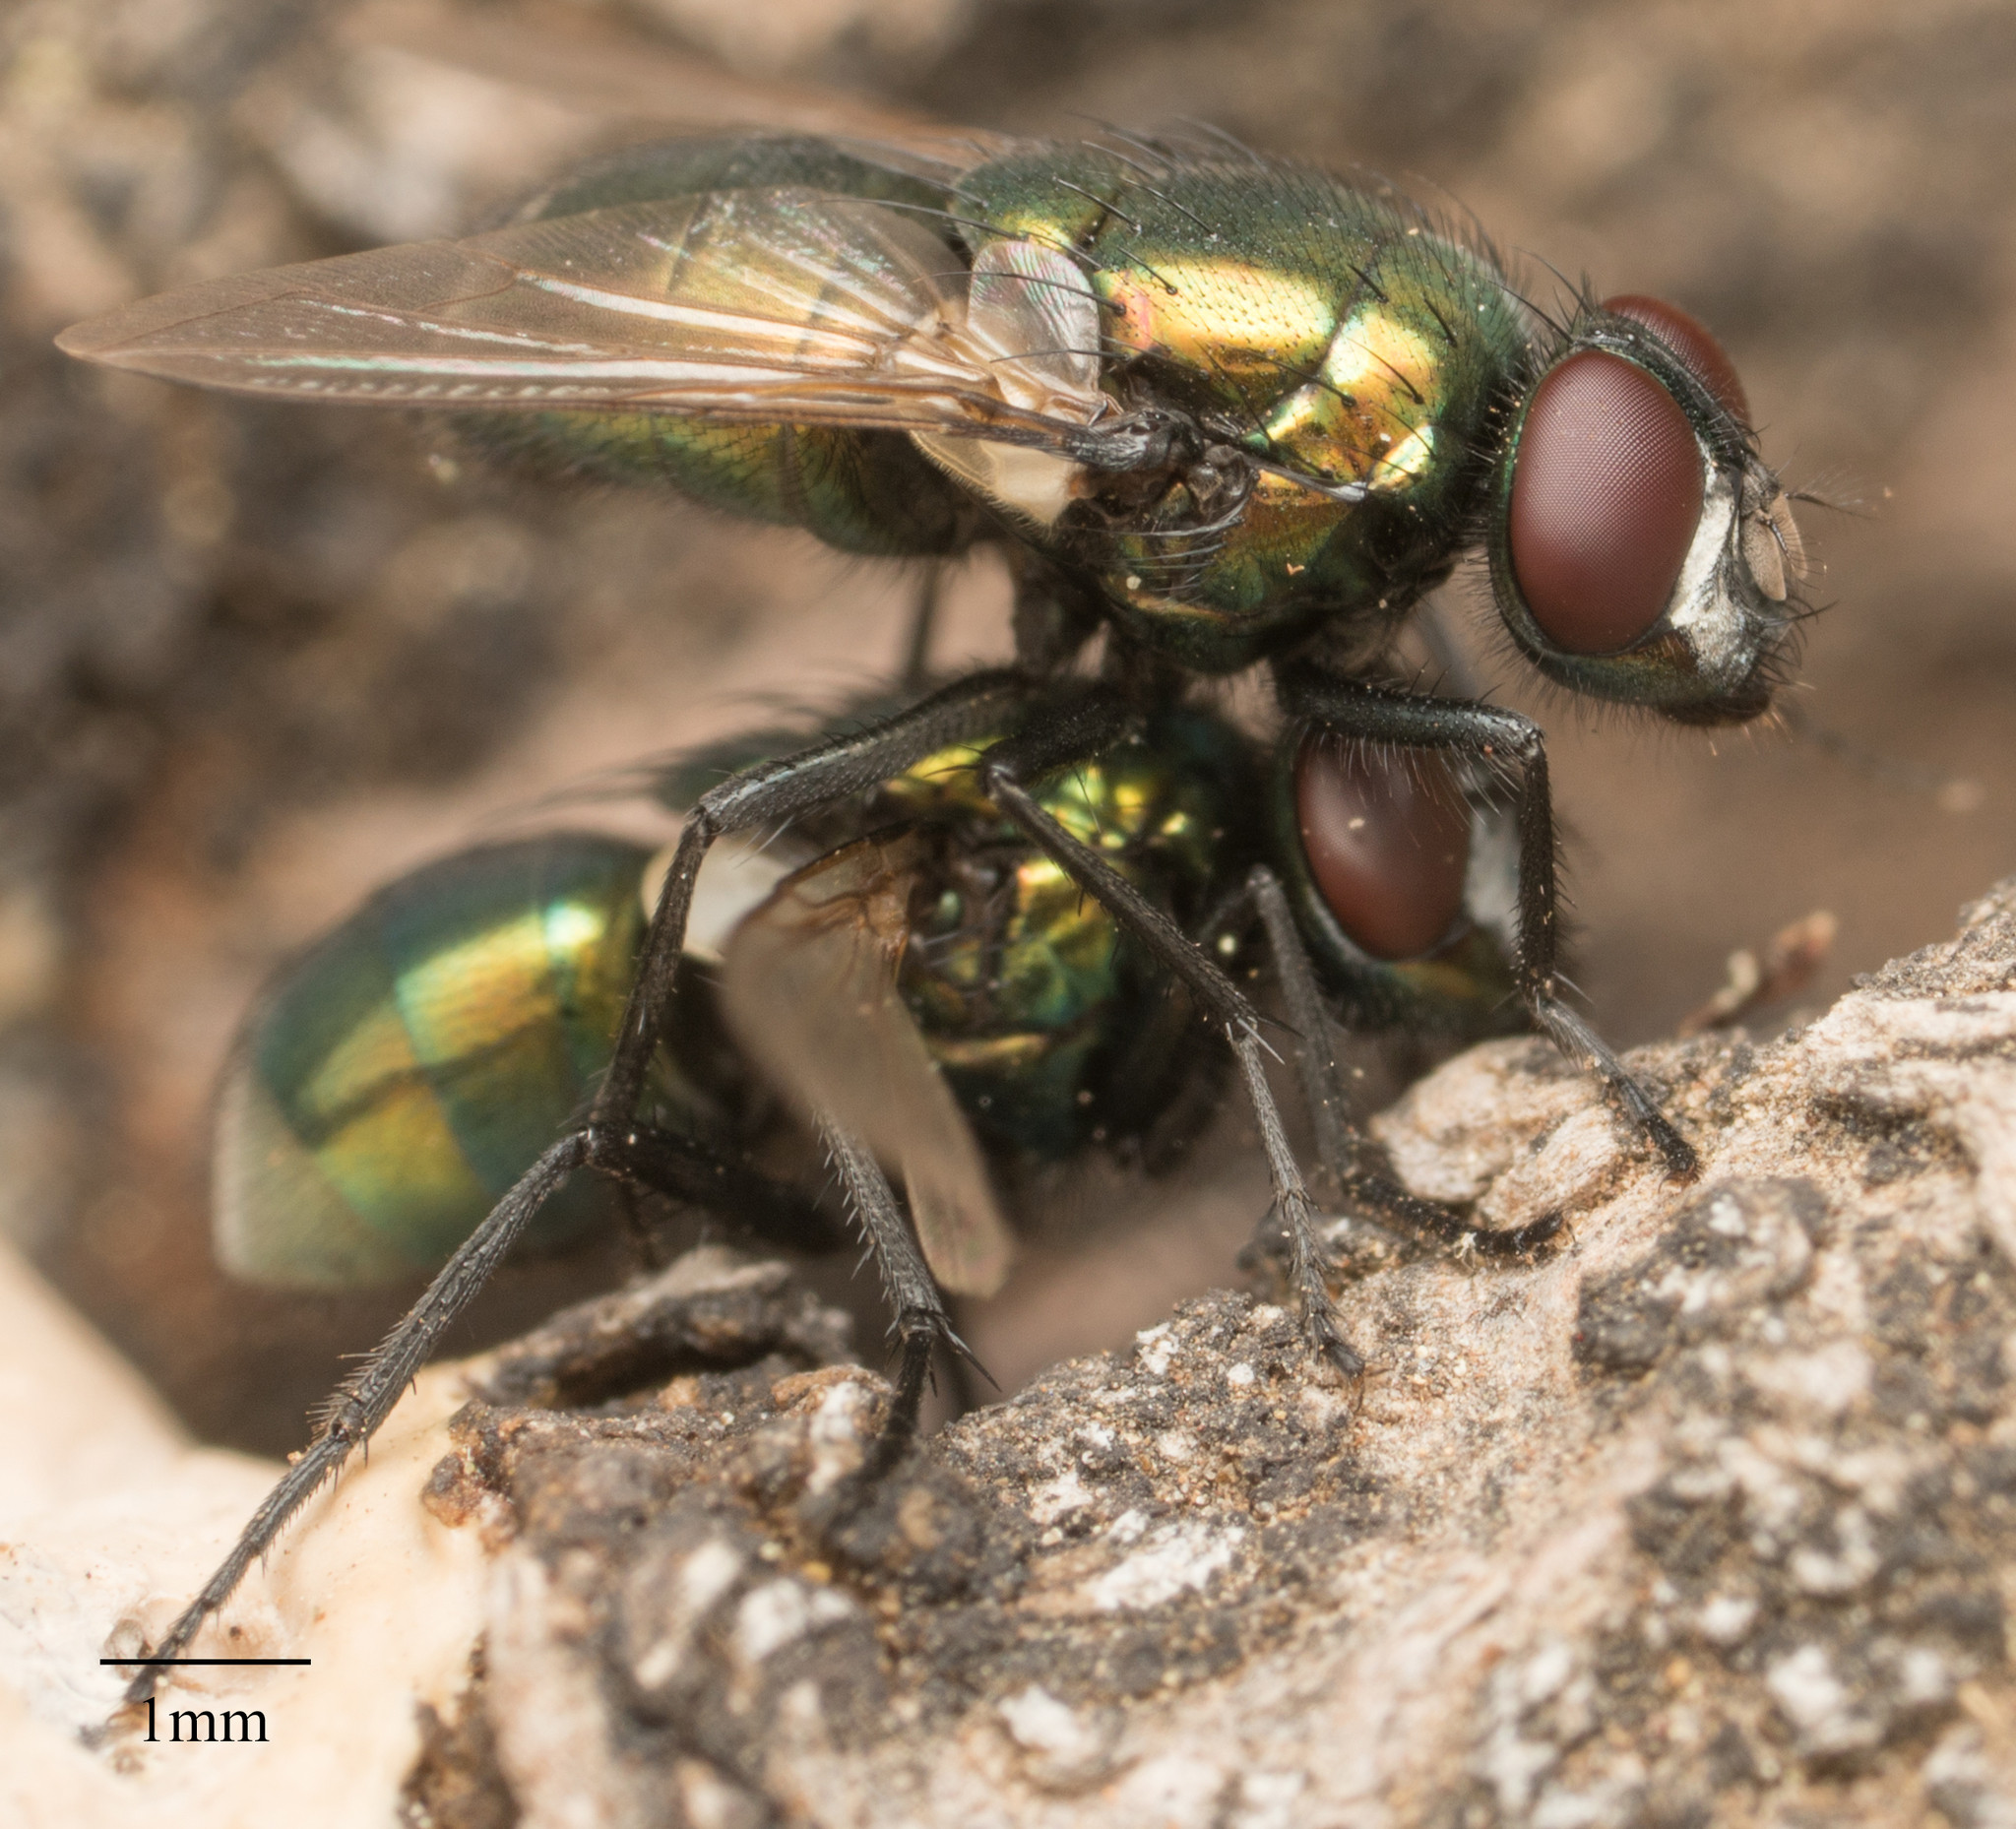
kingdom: Animalia
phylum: Arthropoda
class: Insecta
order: Diptera
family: Muscidae
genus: Neomyia
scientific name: Neomyia cornicina
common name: House fly
